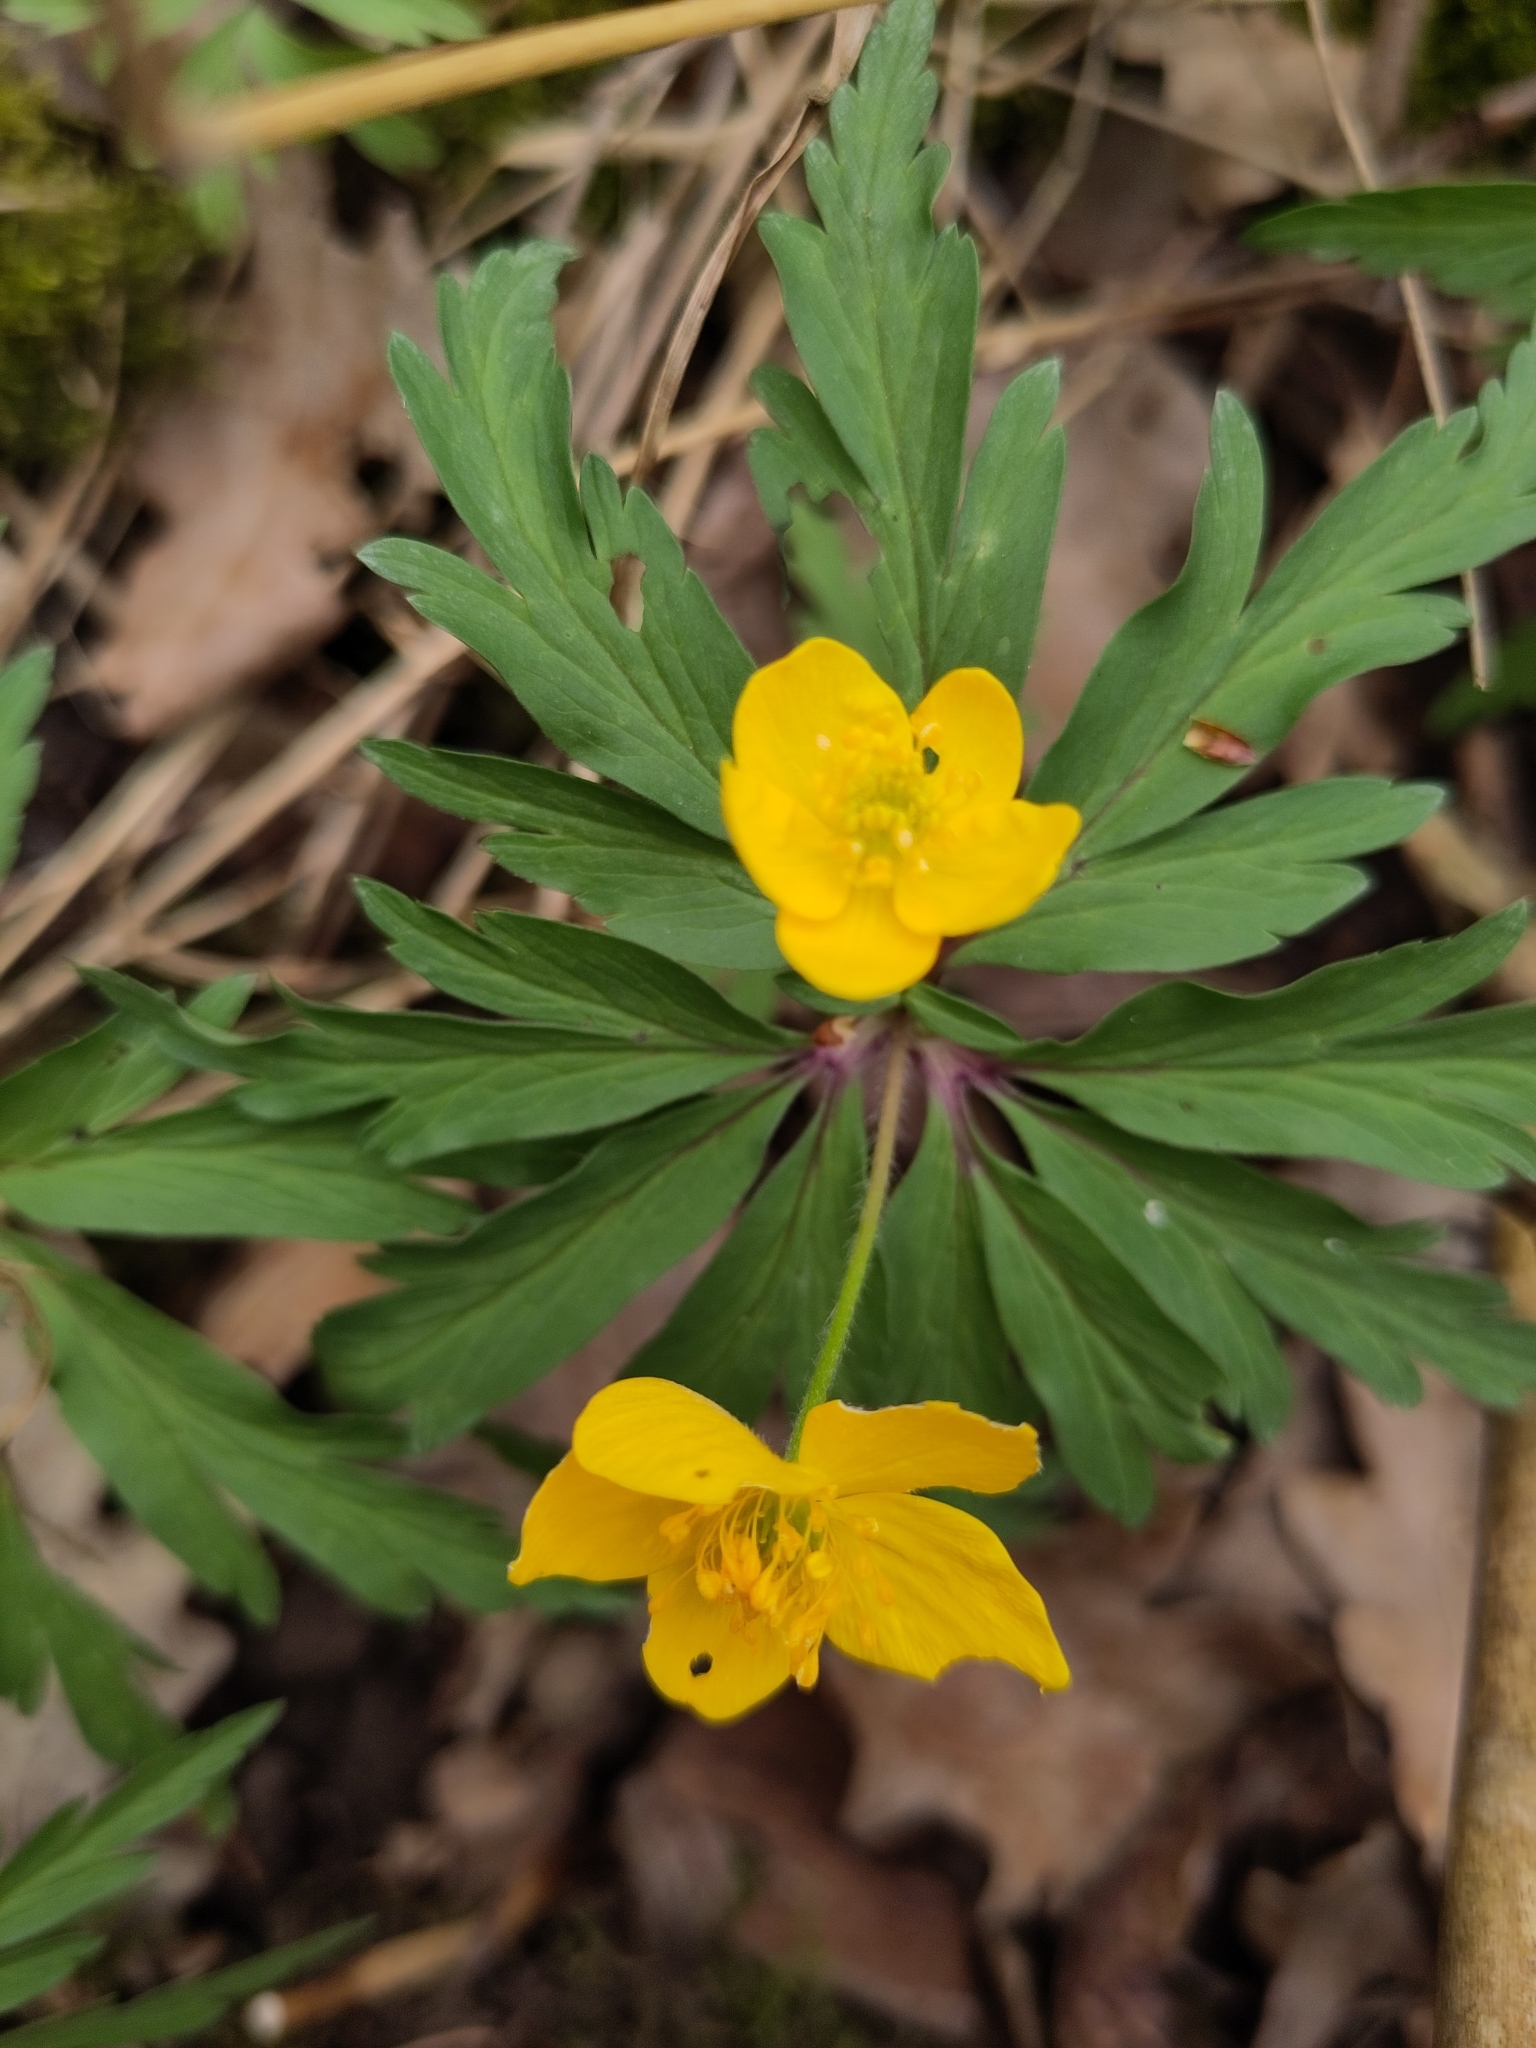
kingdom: Plantae
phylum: Tracheophyta
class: Magnoliopsida
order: Ranunculales
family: Ranunculaceae
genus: Anemone
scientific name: Anemone ranunculoides
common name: Yellow anemone
